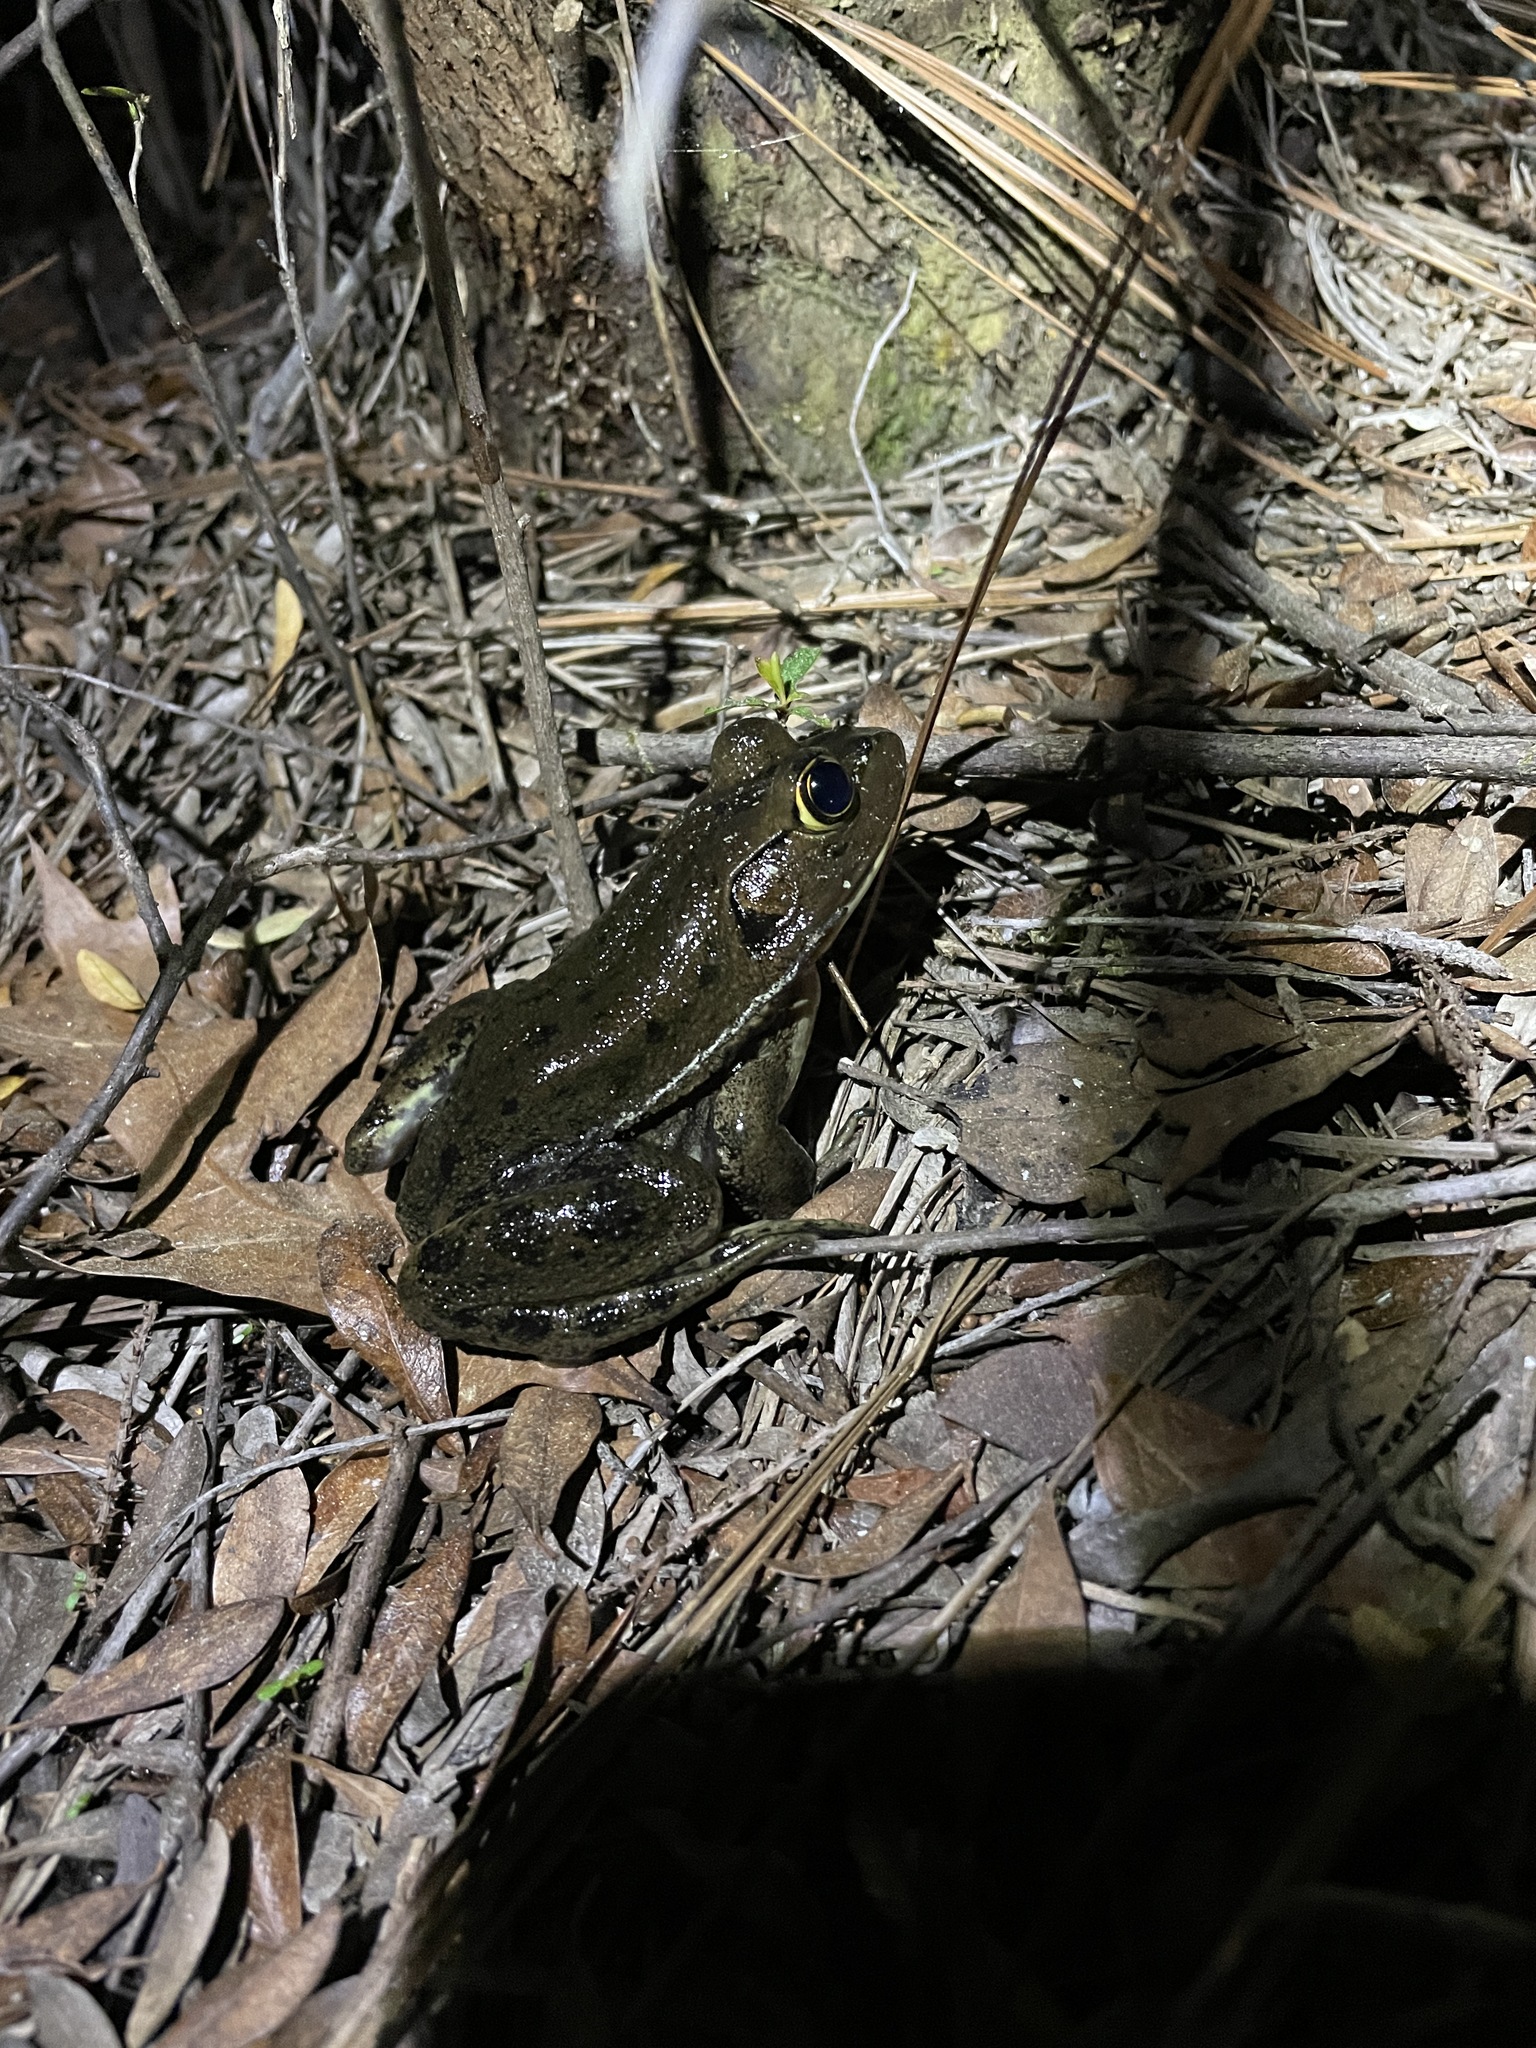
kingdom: Animalia
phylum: Chordata
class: Amphibia
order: Anura
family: Ranidae
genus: Lithobates
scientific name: Lithobates grylio
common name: Pig frog
